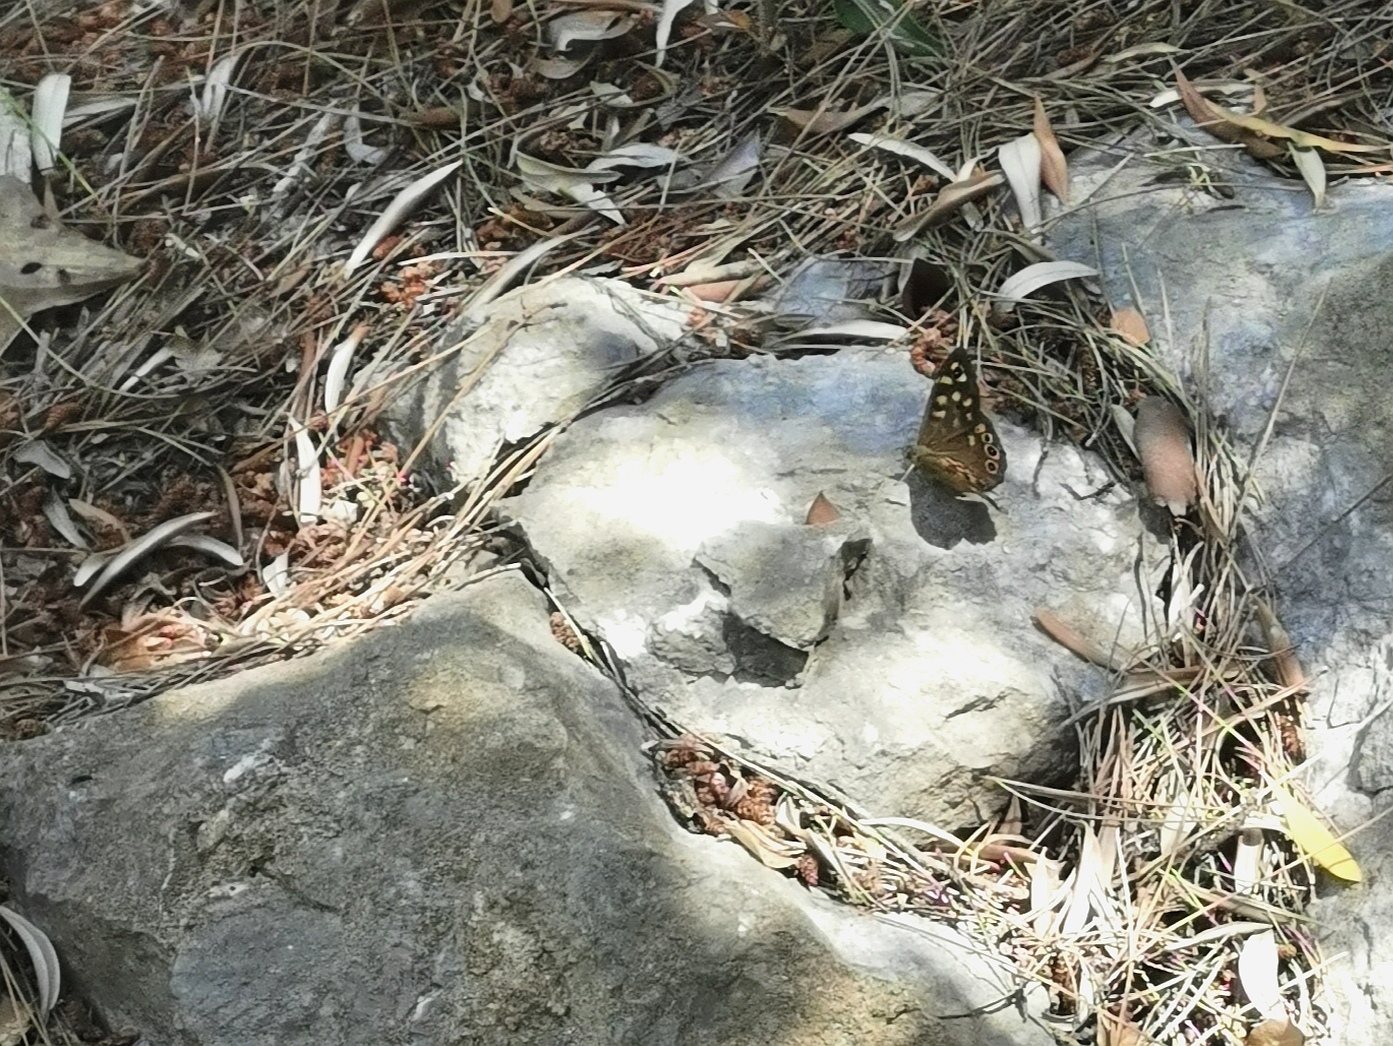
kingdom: Animalia
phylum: Arthropoda
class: Insecta
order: Lepidoptera
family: Nymphalidae
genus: Pararge
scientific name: Pararge aegeria
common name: Speckled wood
